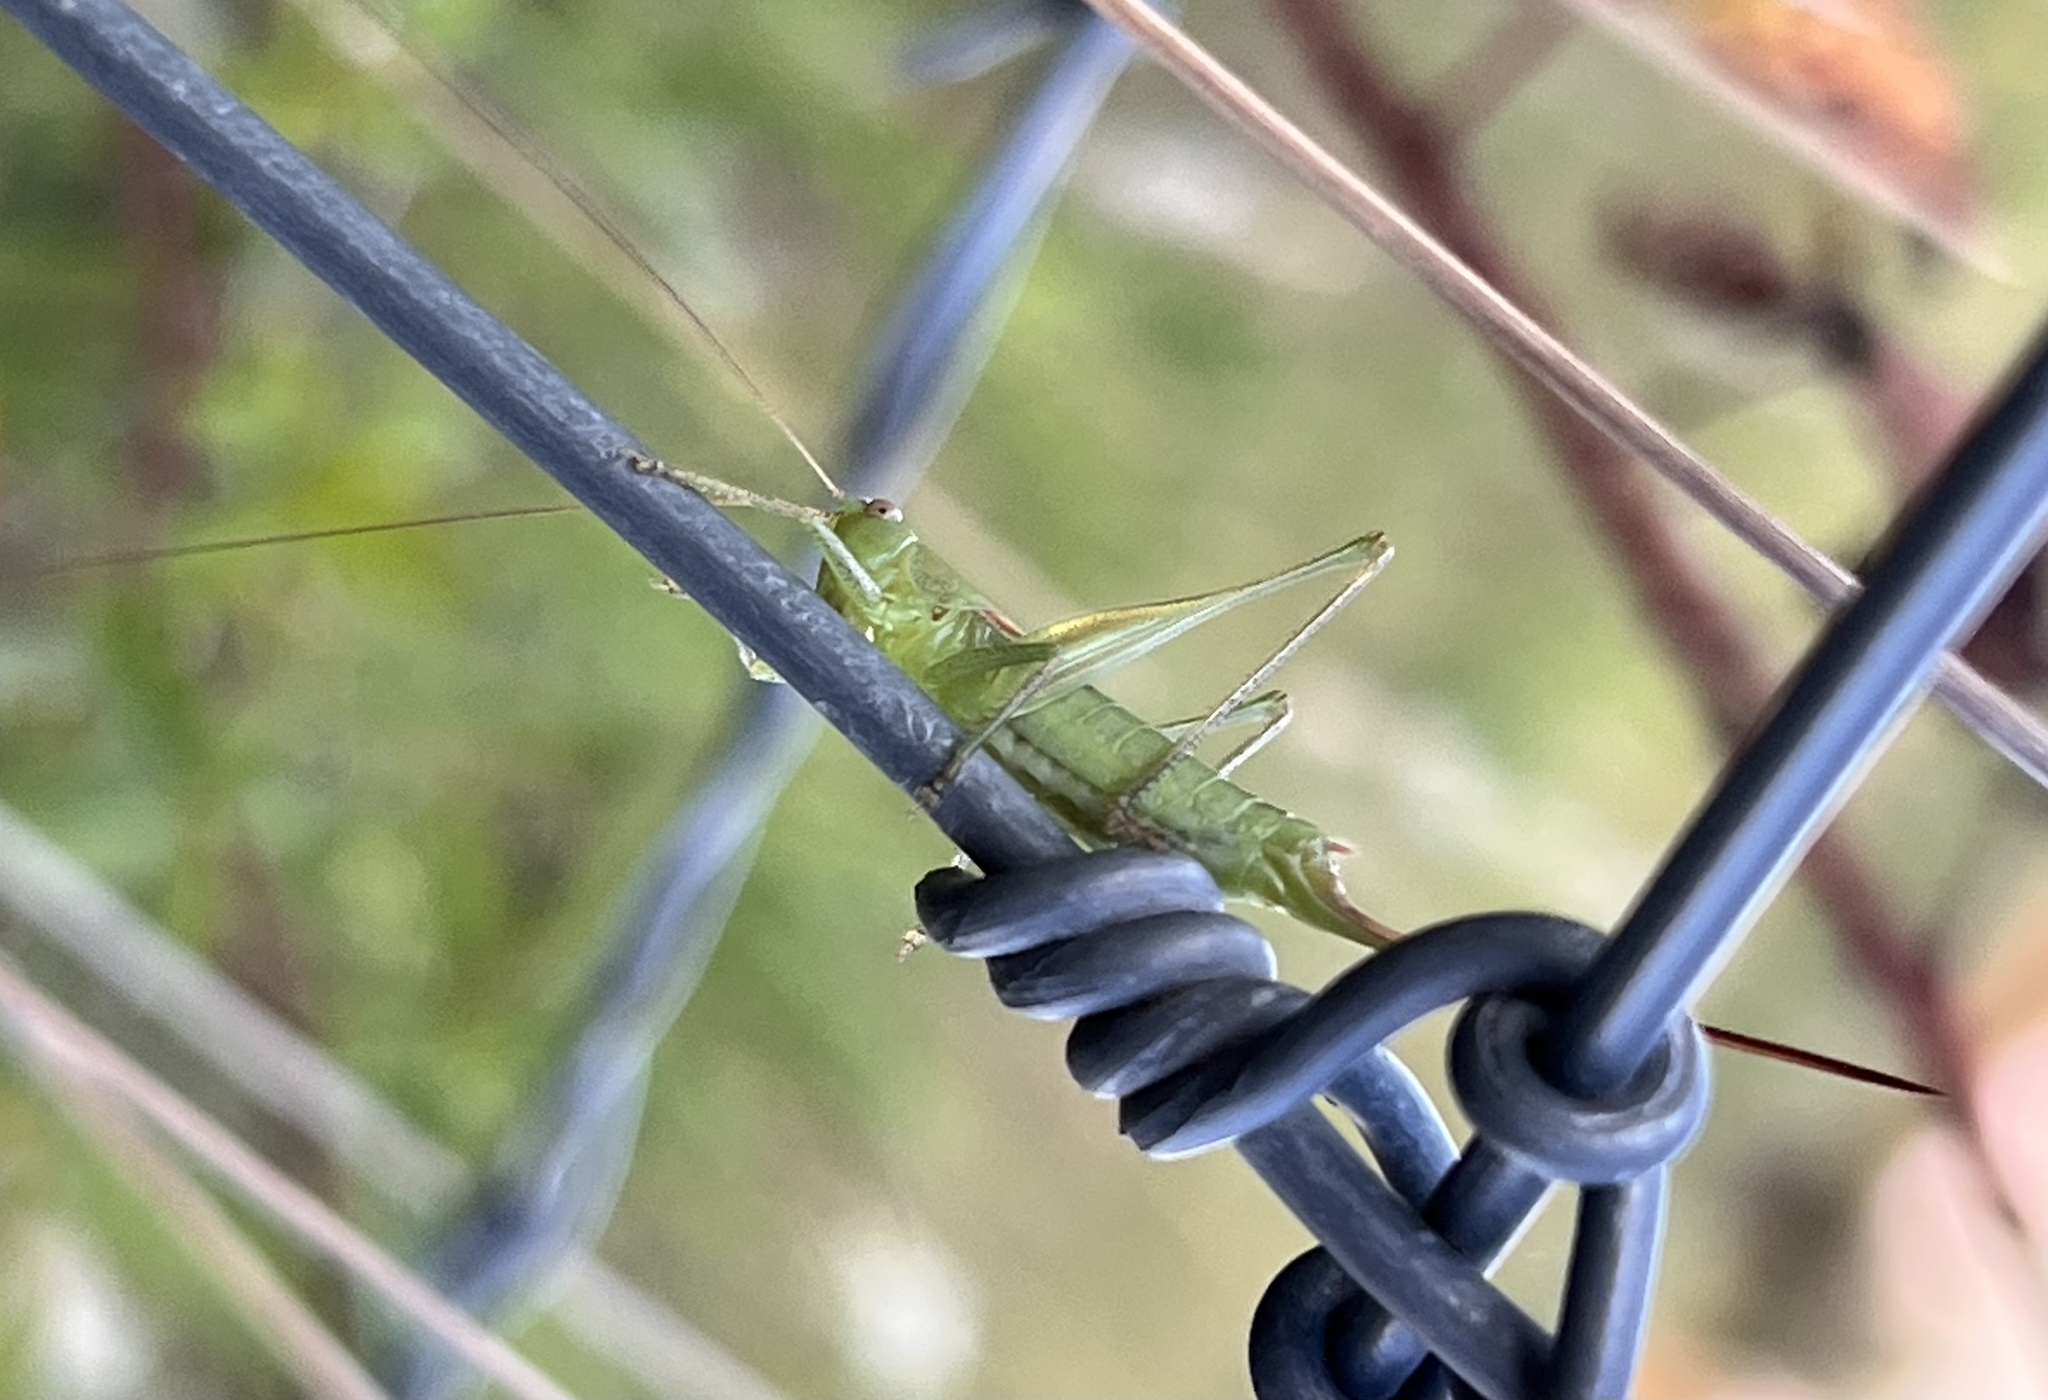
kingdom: Animalia
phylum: Arthropoda
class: Insecta
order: Orthoptera
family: Tettigoniidae
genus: Conocephalus
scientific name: Conocephalus strictus
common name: Straight-lanced katydid
